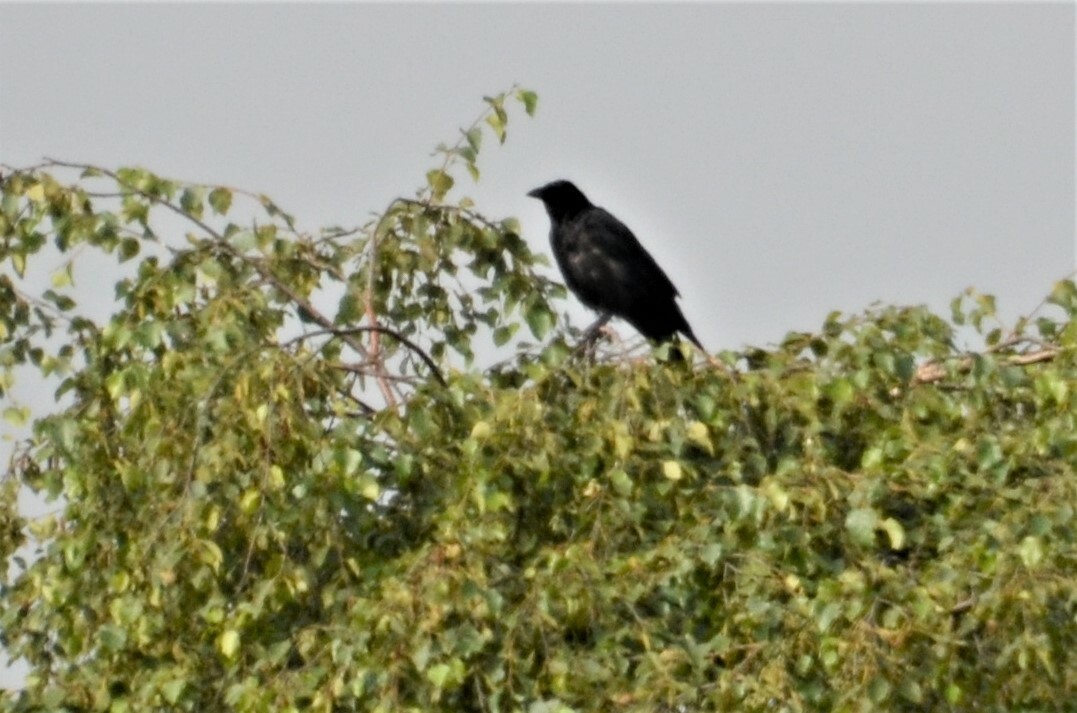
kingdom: Animalia
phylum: Chordata
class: Aves
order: Passeriformes
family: Corvidae
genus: Corvus
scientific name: Corvus
